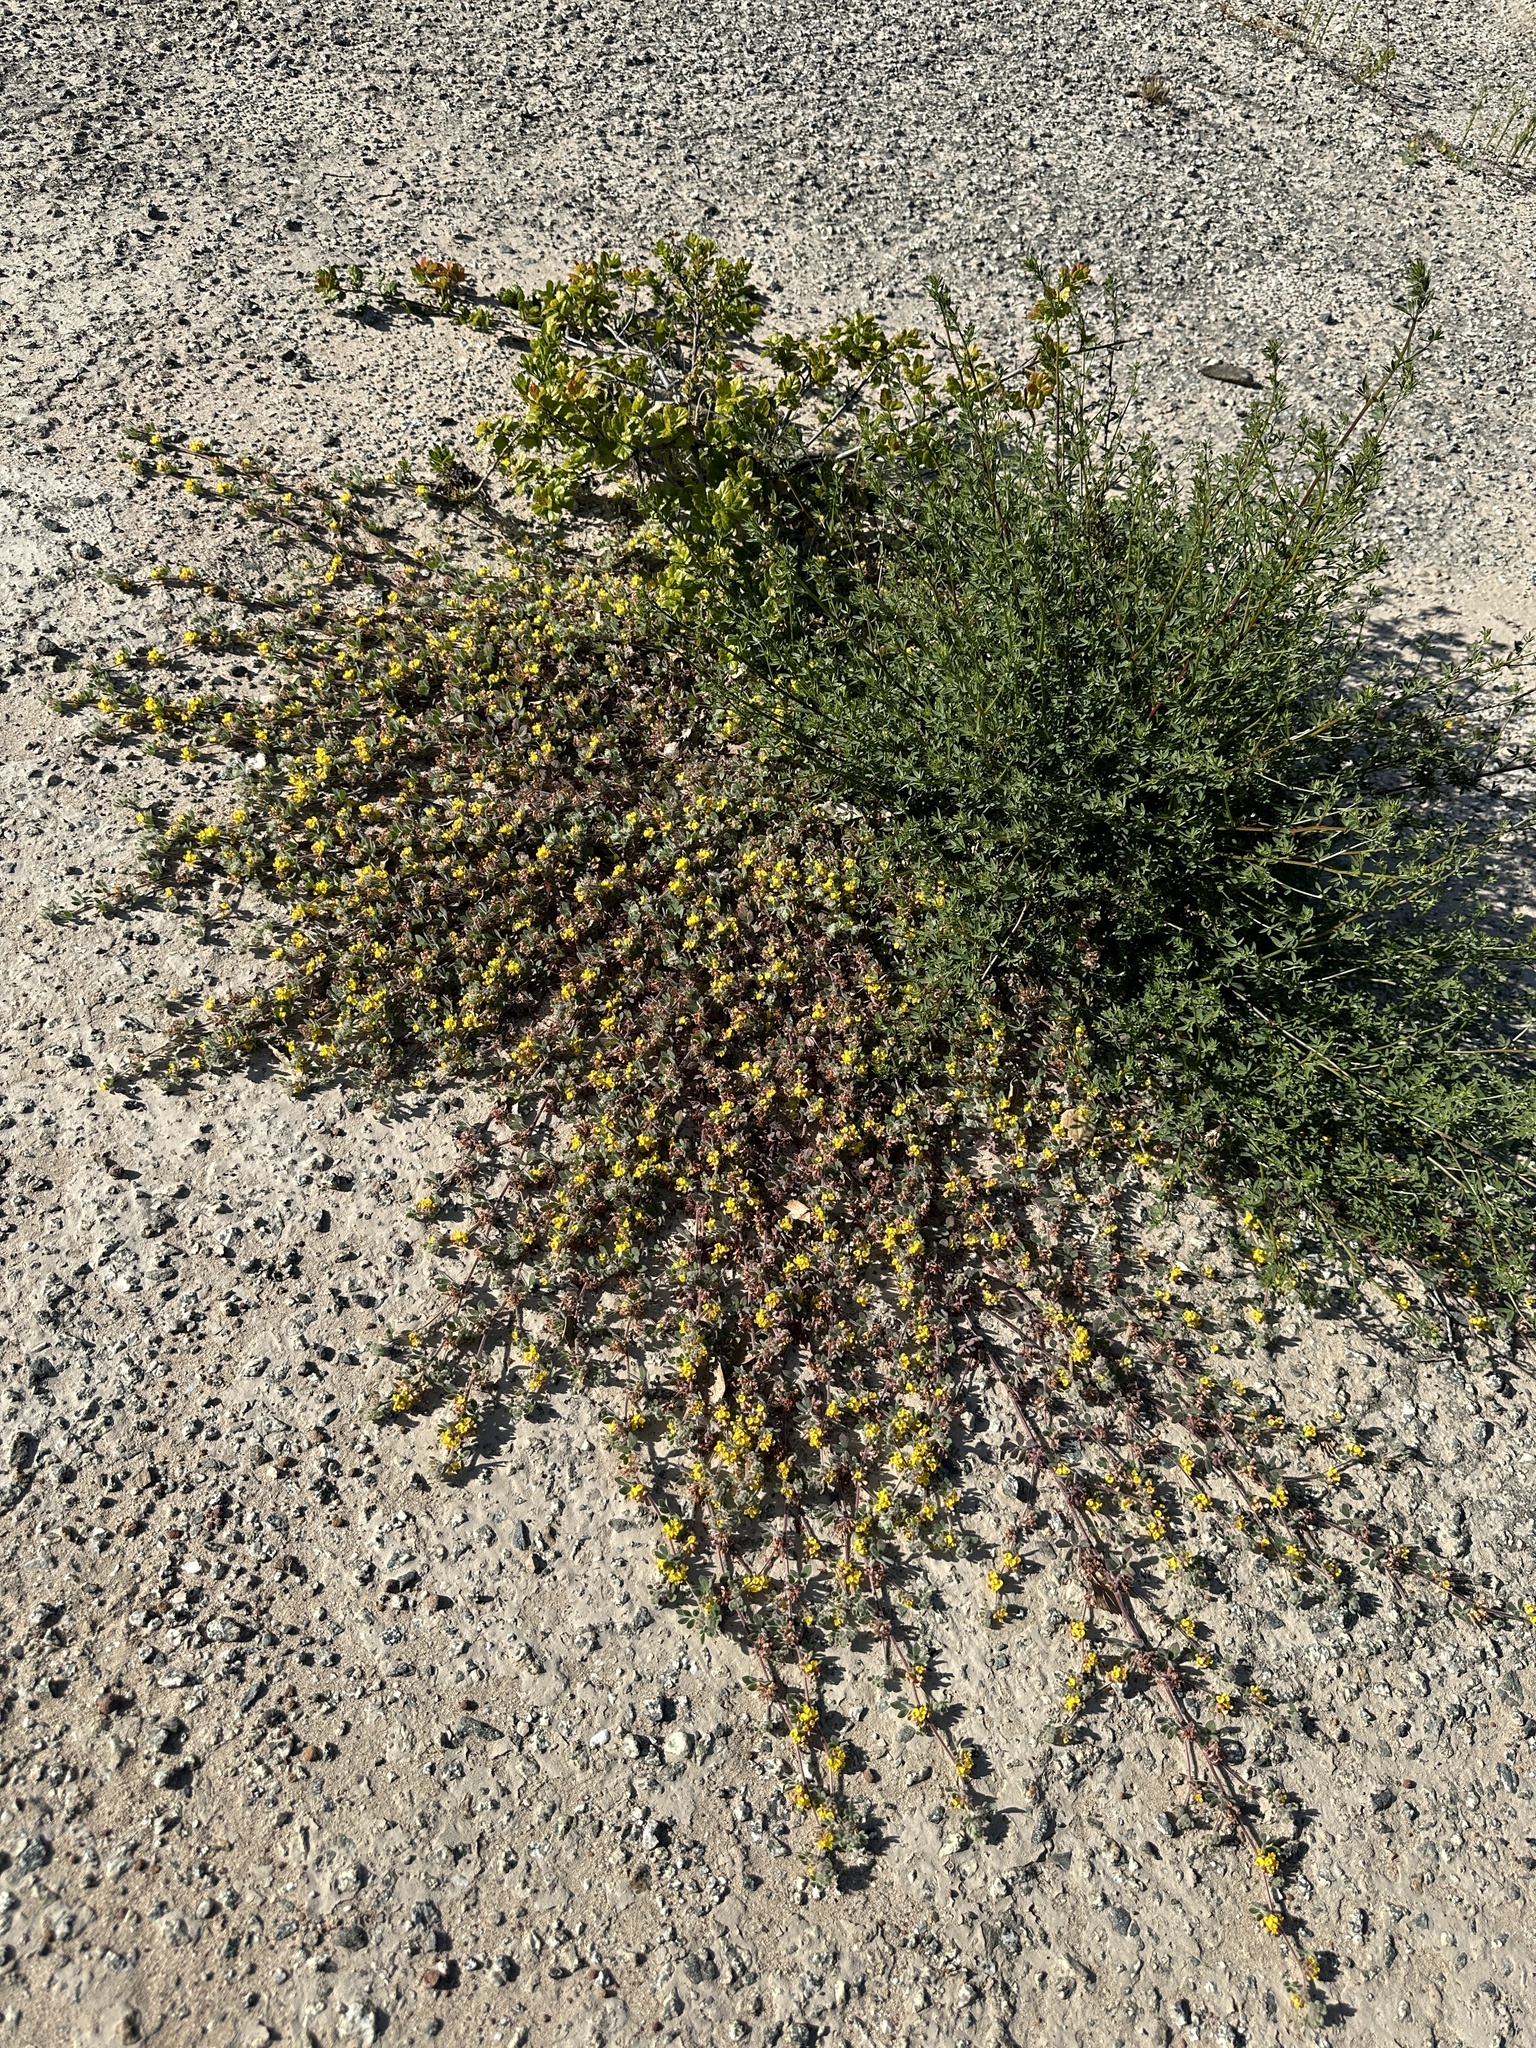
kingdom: Plantae
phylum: Tracheophyta
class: Magnoliopsida
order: Fabales
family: Fabaceae
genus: Acmispon
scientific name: Acmispon tomentosus
